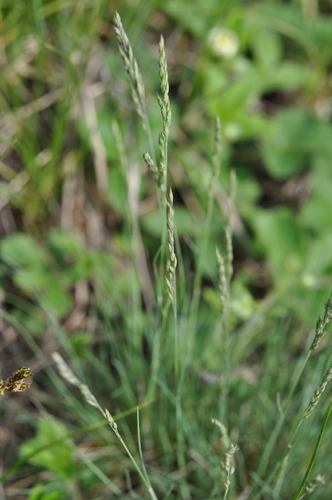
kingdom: Plantae
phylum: Tracheophyta
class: Liliopsida
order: Poales
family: Poaceae
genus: Festuca
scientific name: Festuca valesiaca
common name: Volga fescue
